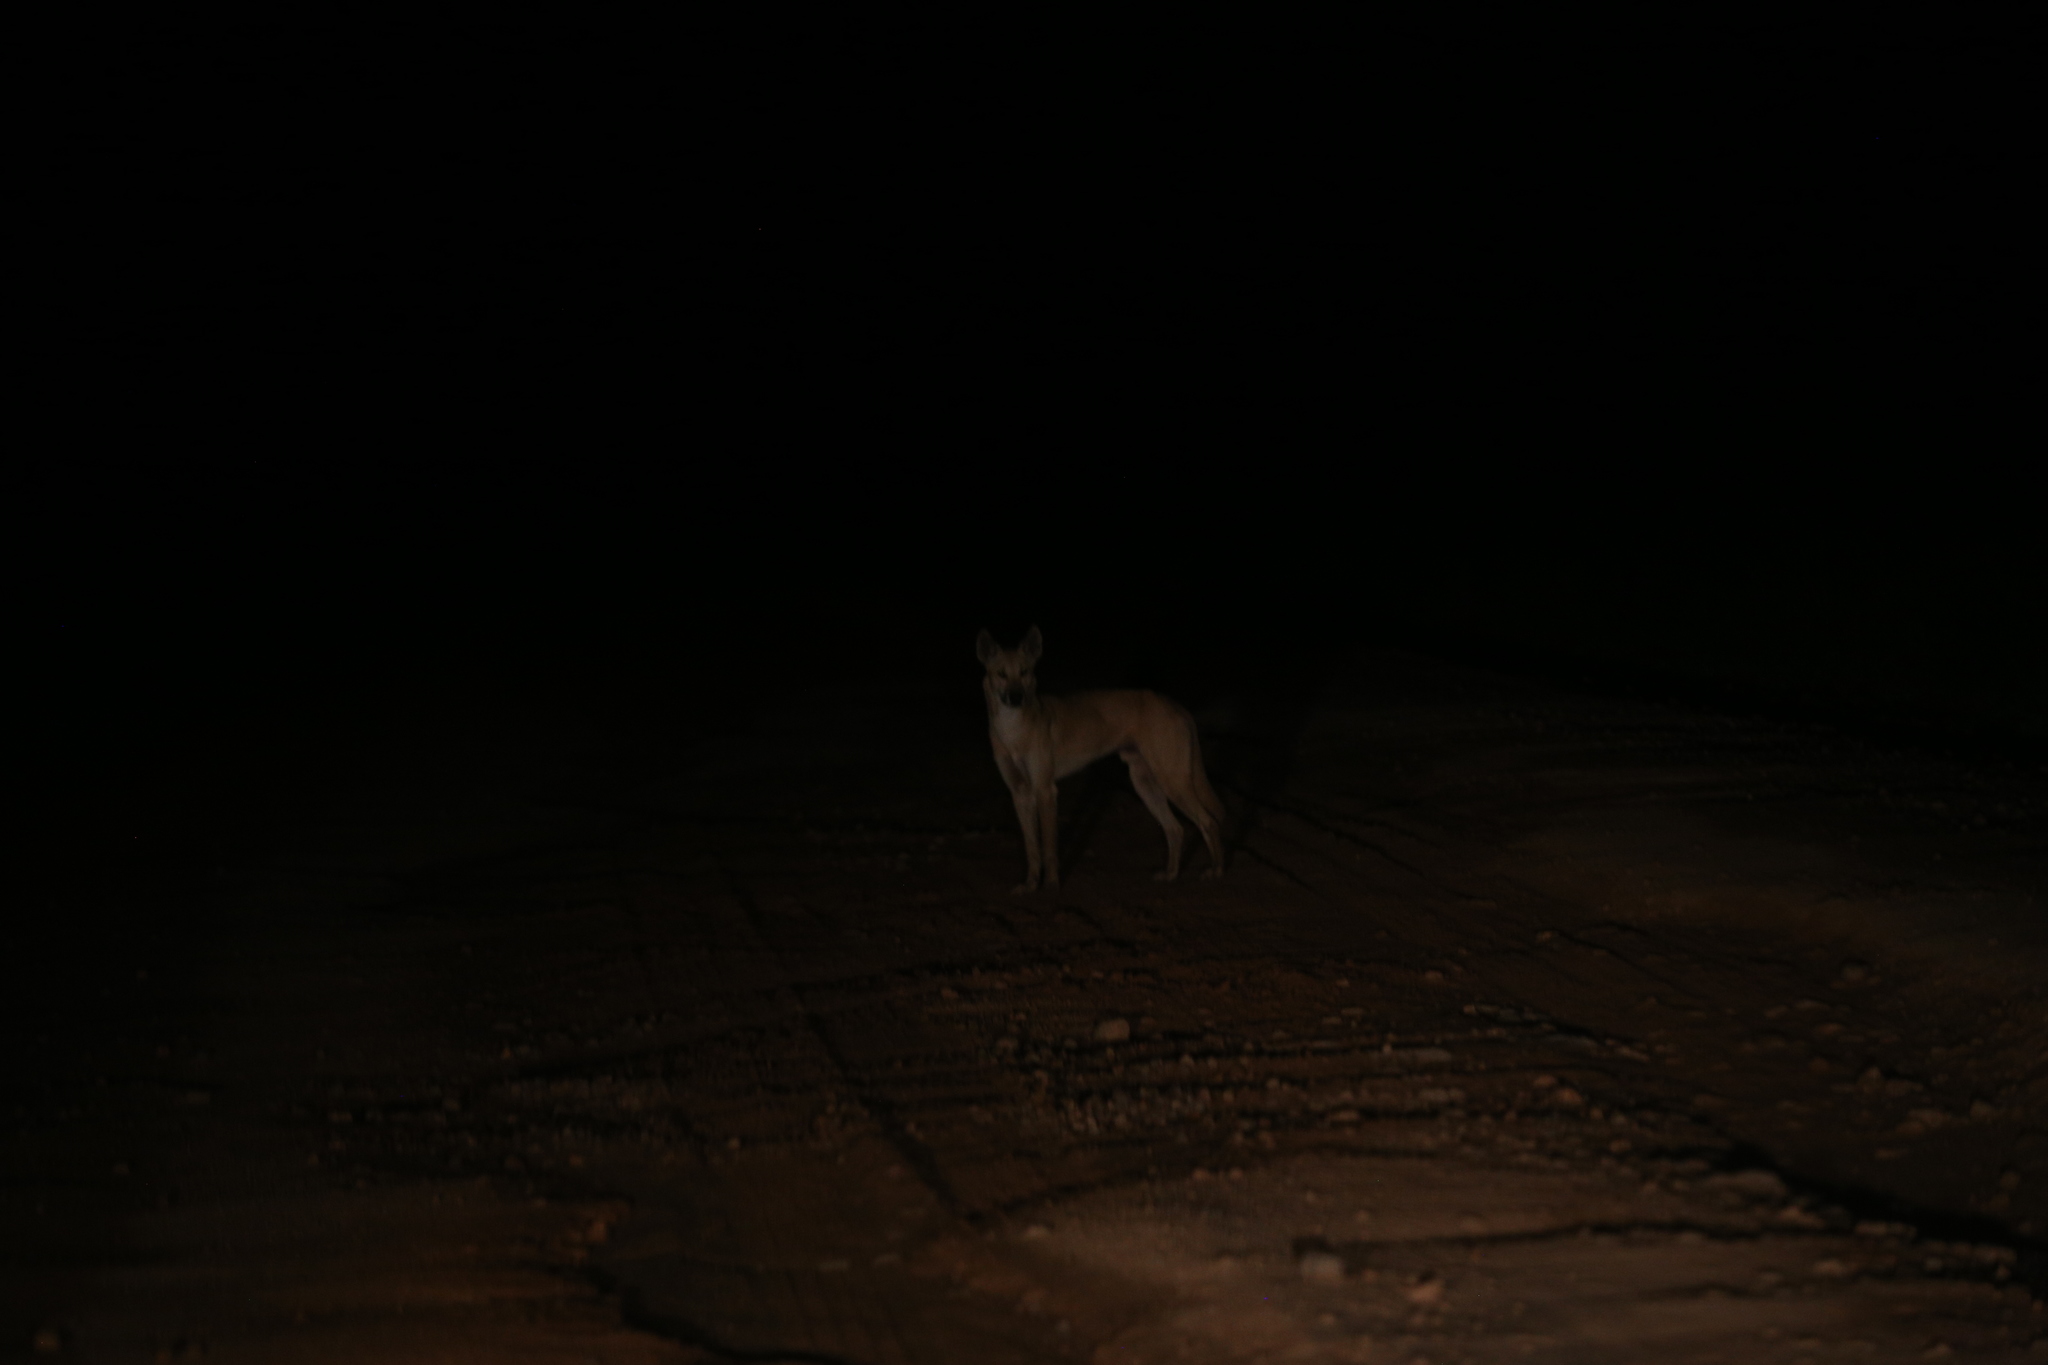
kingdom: Animalia
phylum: Chordata
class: Mammalia
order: Carnivora
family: Canidae
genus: Canis
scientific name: Canis lupus
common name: Gray wolf
